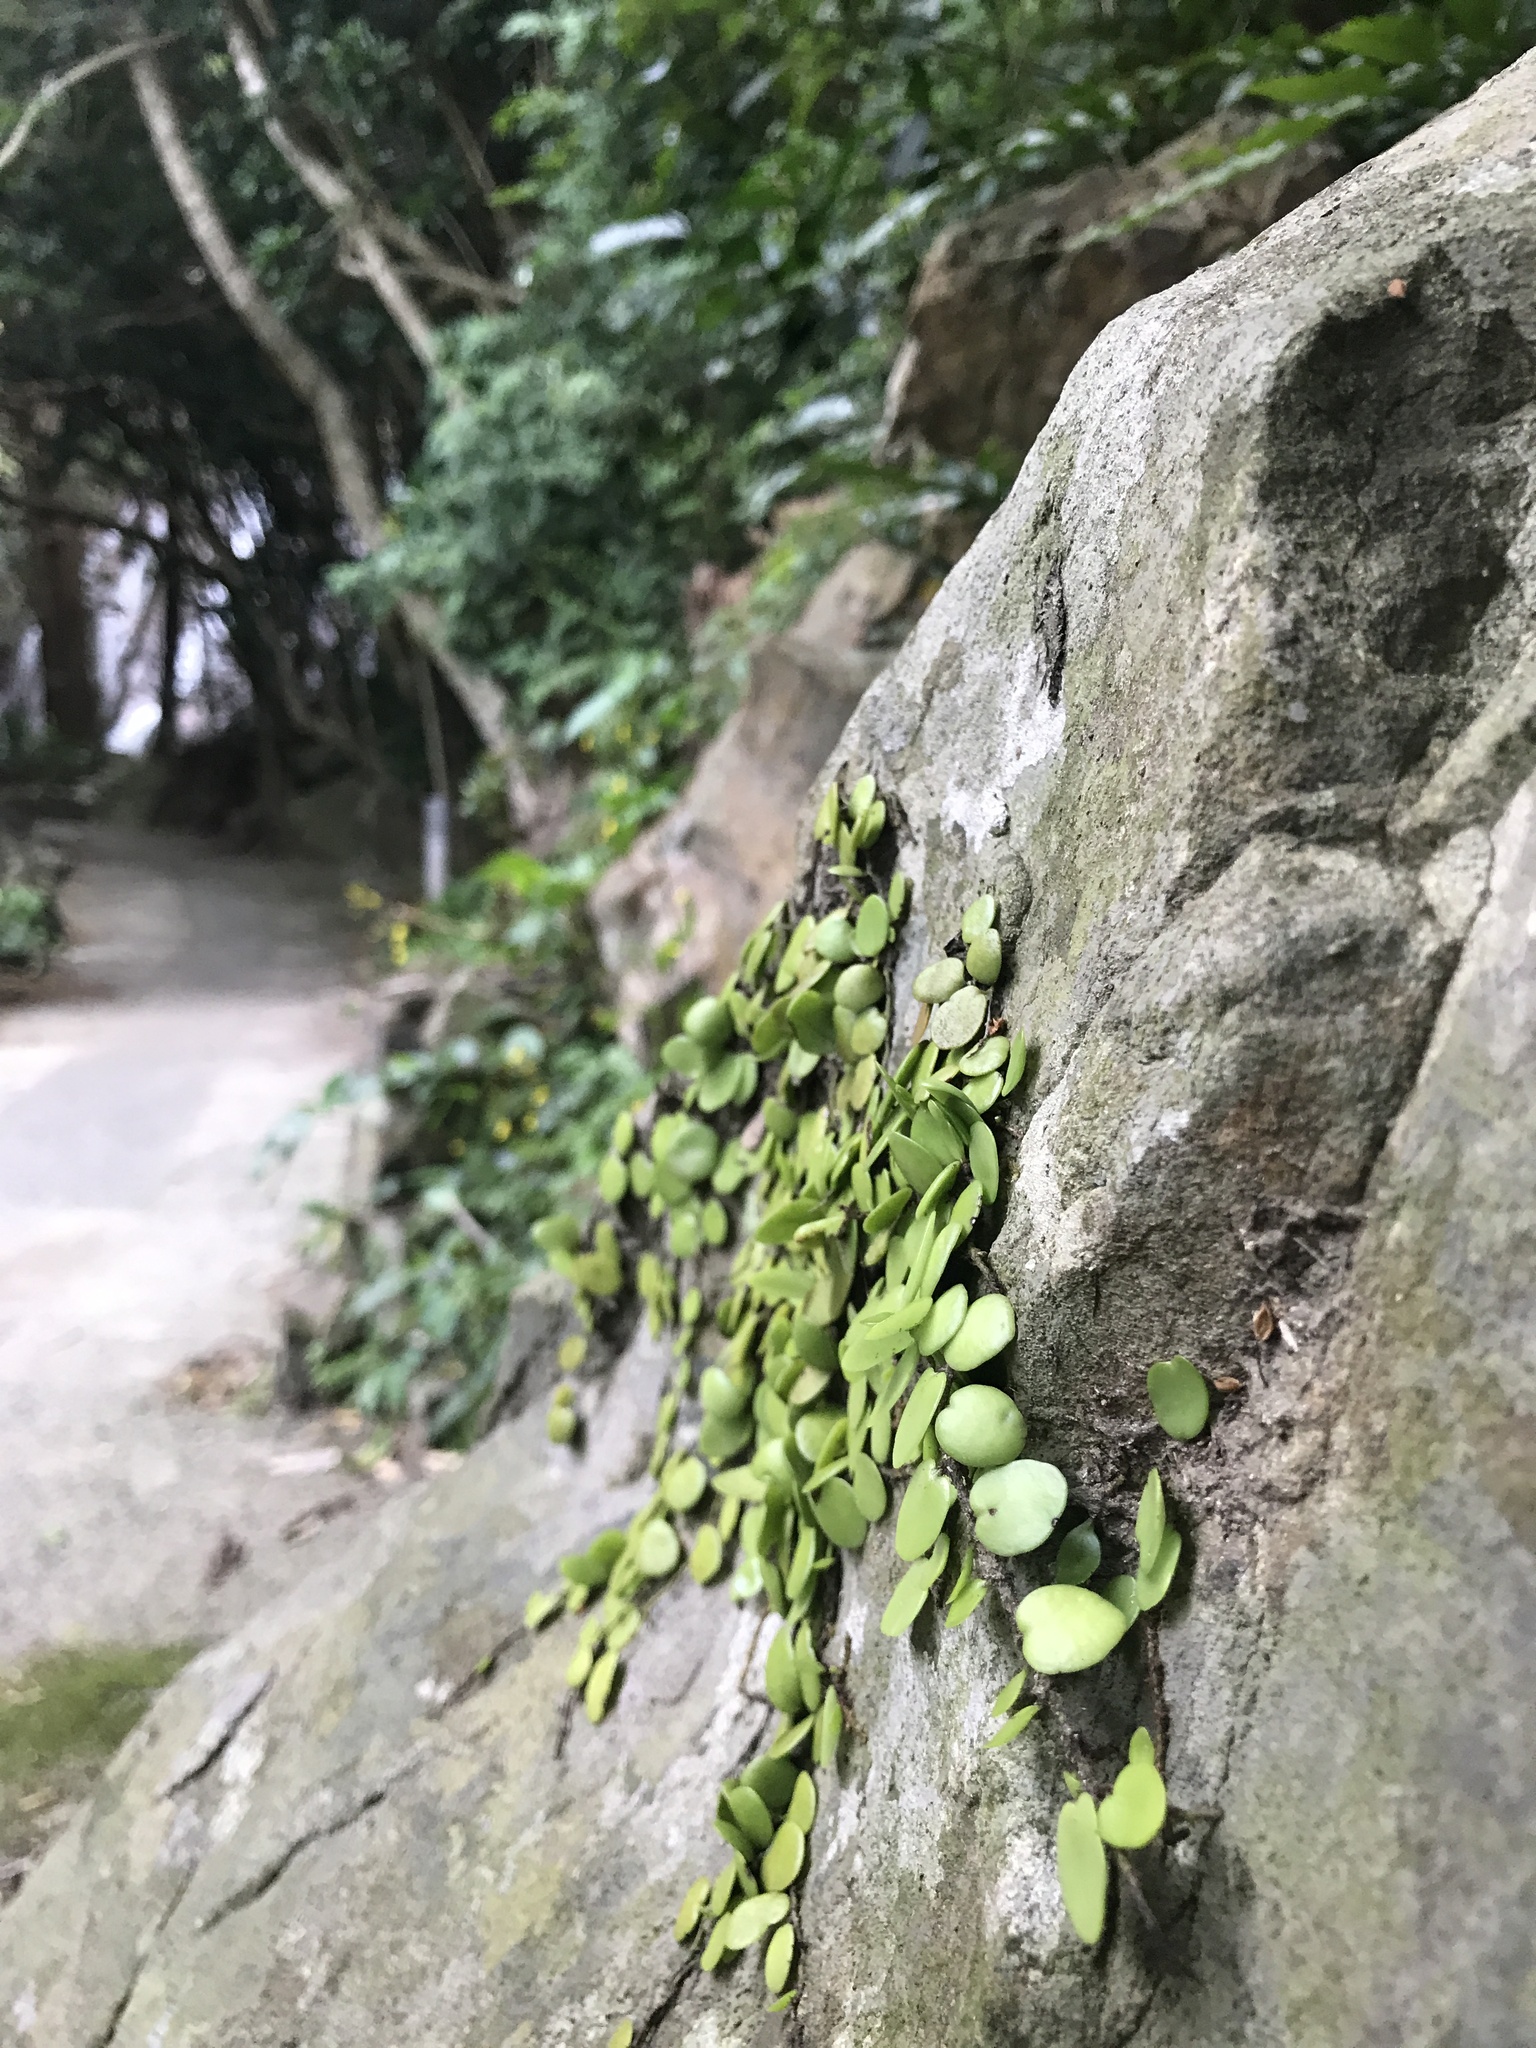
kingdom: Plantae
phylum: Tracheophyta
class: Polypodiopsida
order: Polypodiales
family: Polypodiaceae
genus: Lepisorus
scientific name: Lepisorus microphyllus
